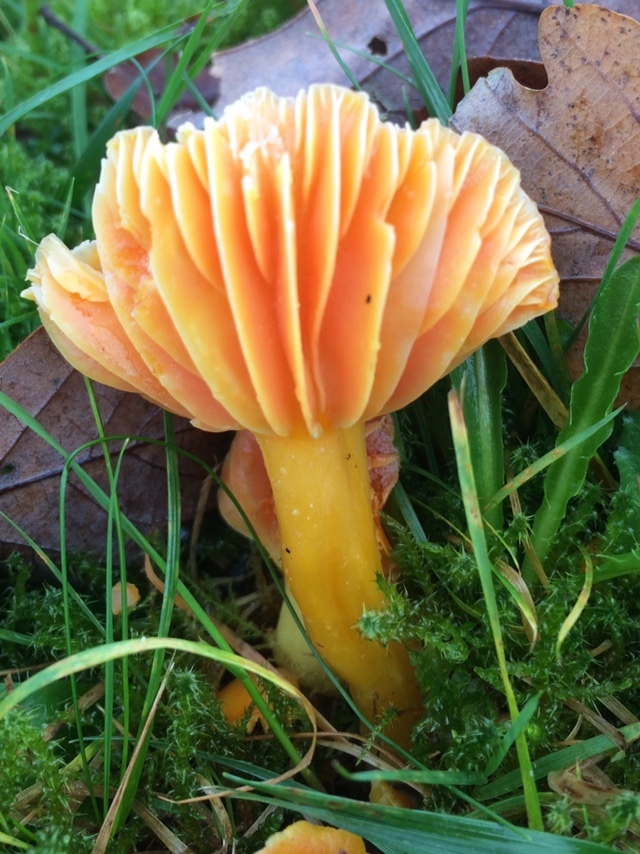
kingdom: Fungi
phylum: Basidiomycota
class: Agaricomycetes
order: Agaricales
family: Hygrophoraceae
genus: Hygrocybe
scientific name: Hygrocybe quieta
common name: Oily waxcap
